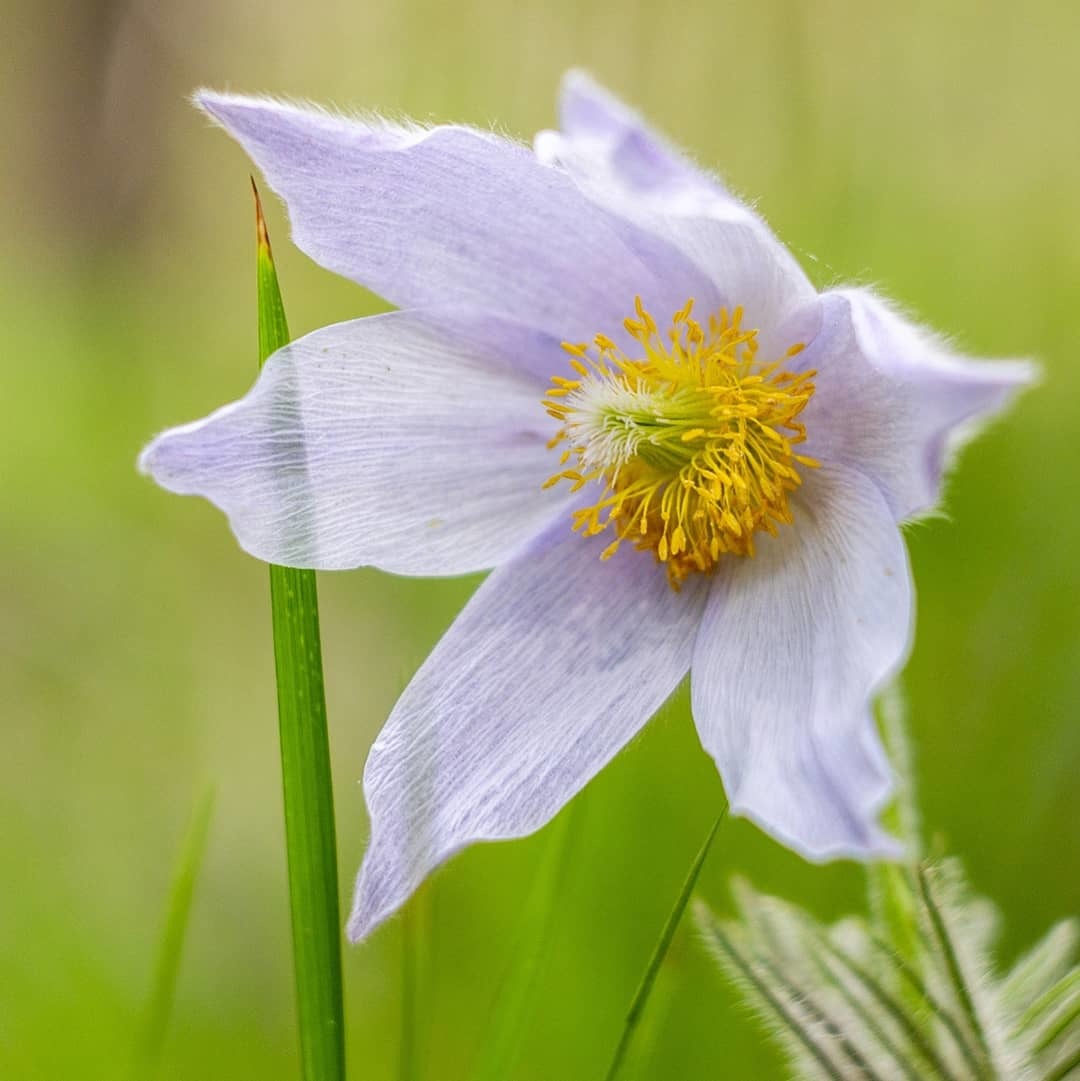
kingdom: Plantae
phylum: Tracheophyta
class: Magnoliopsida
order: Ranunculales
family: Ranunculaceae
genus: Pulsatilla
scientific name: Pulsatilla patens
